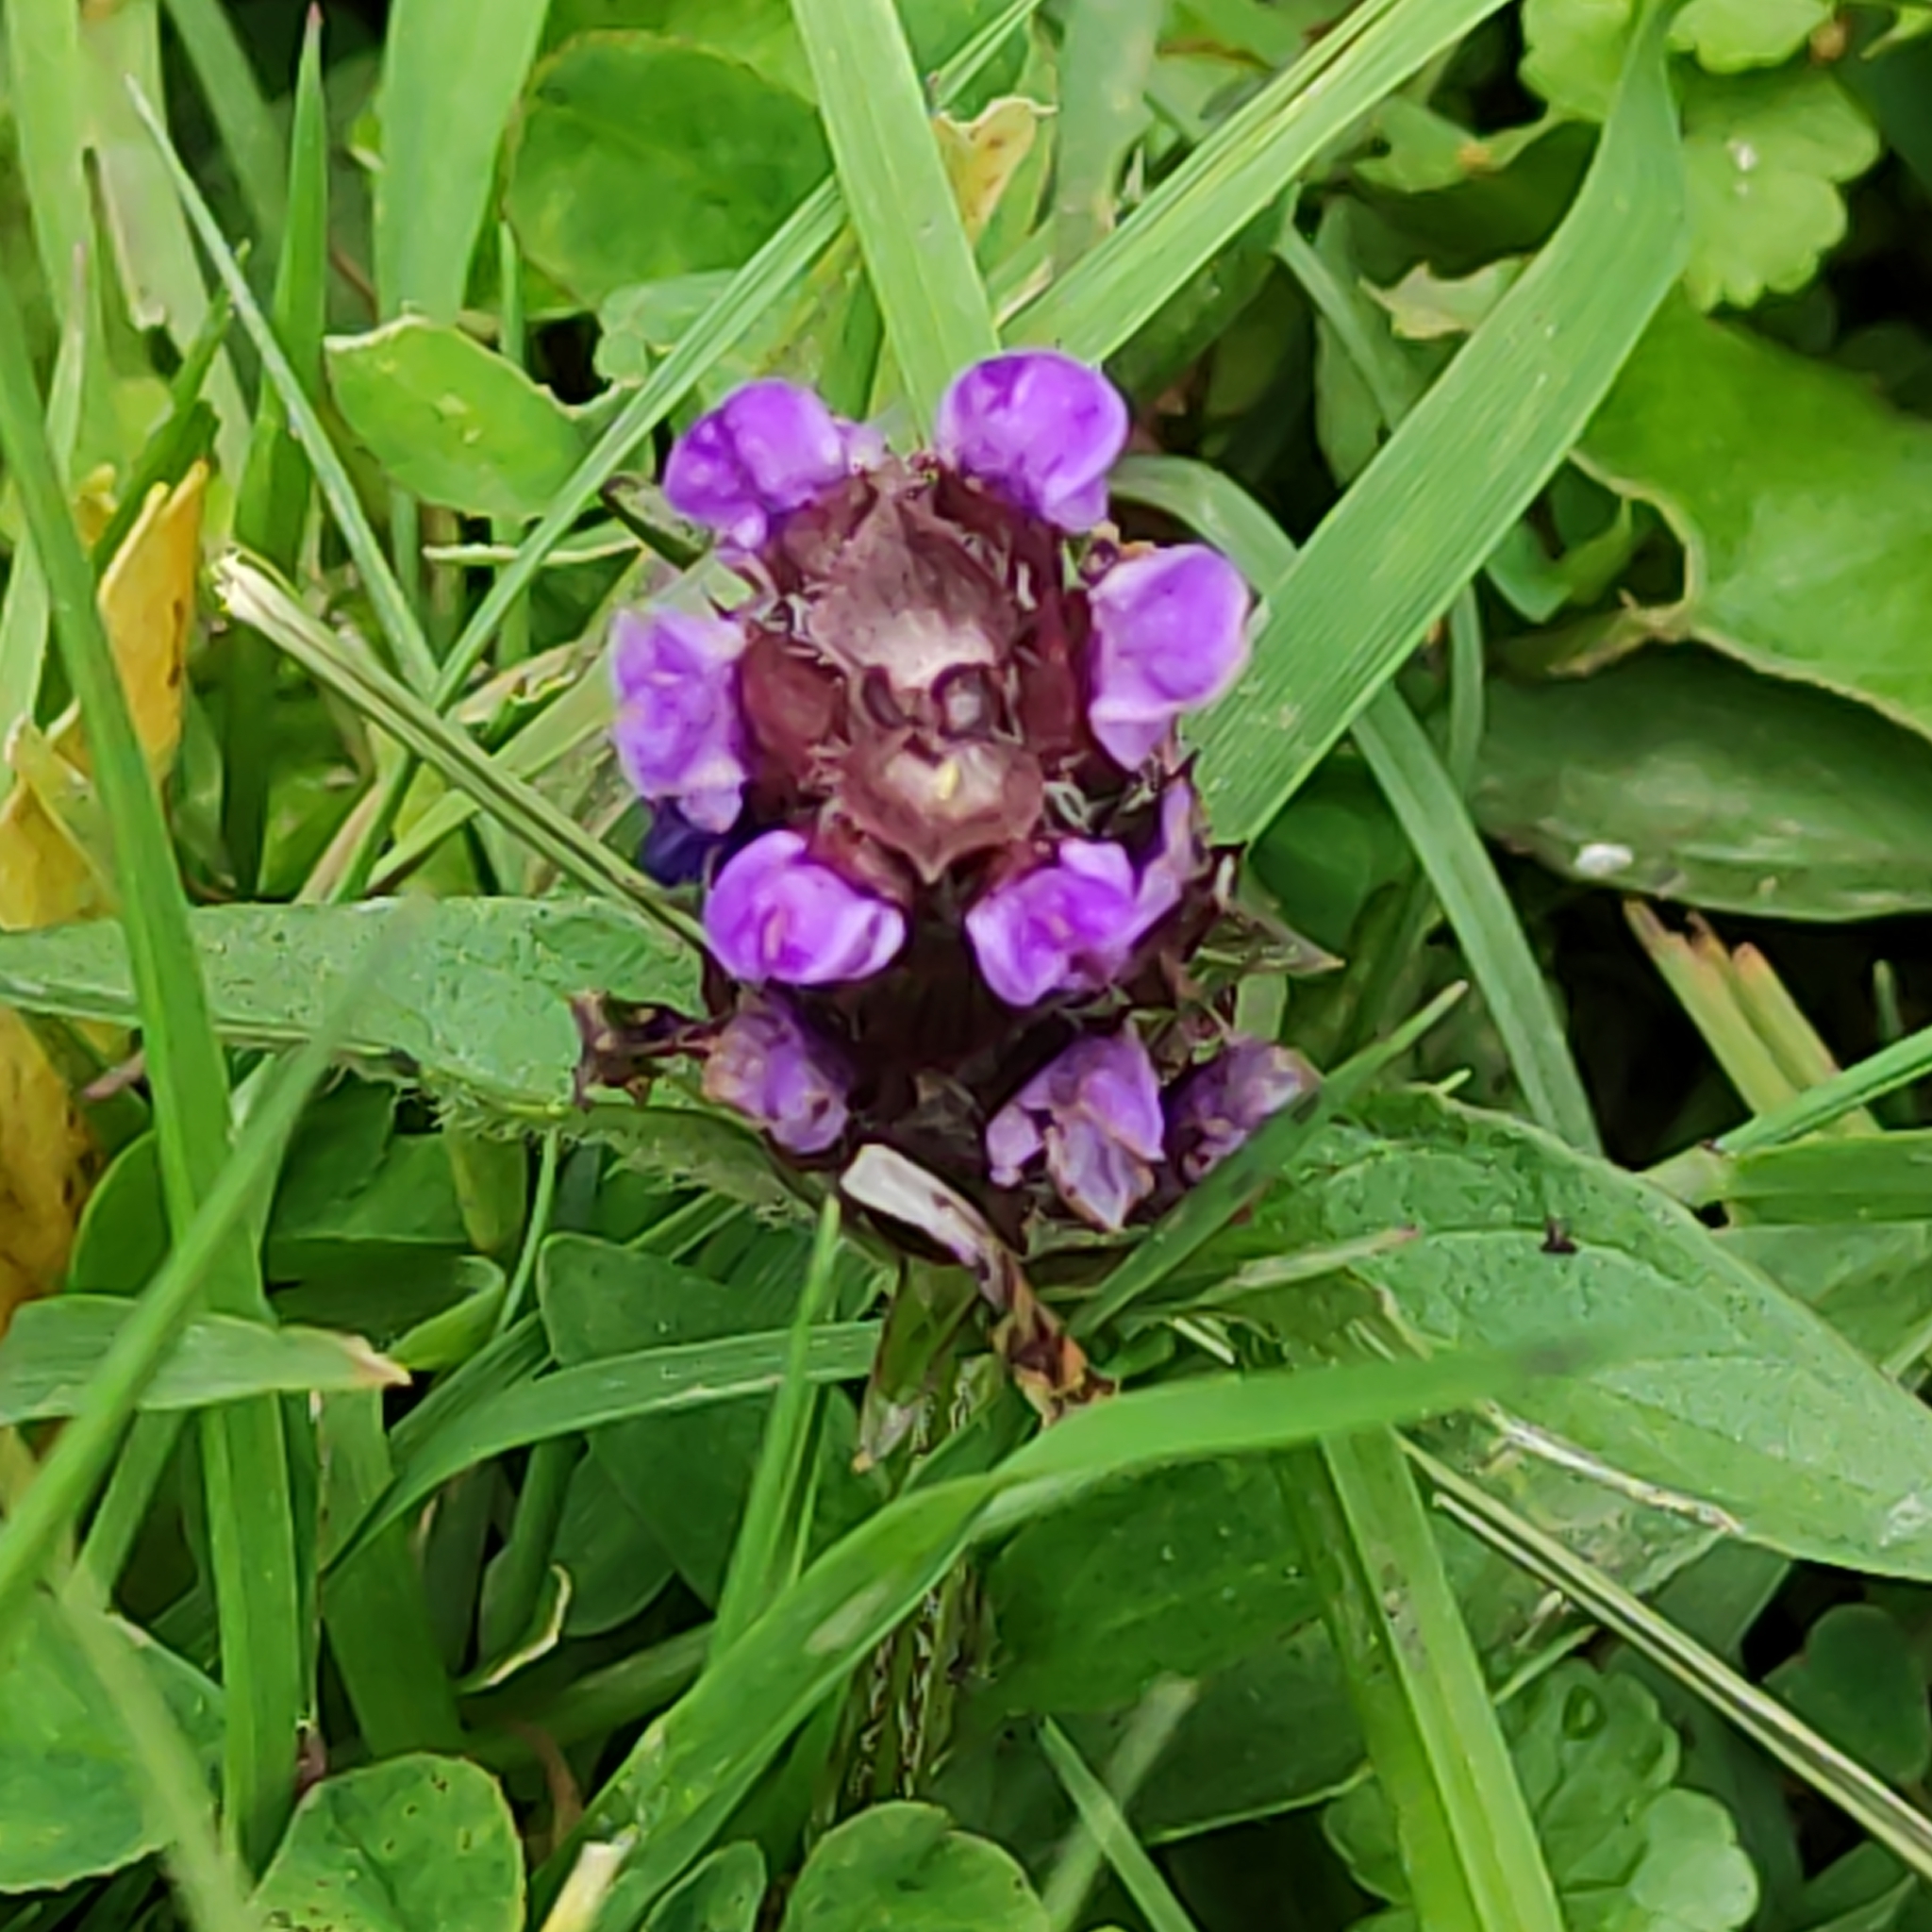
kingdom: Plantae
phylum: Tracheophyta
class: Magnoliopsida
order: Lamiales
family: Lamiaceae
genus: Prunella
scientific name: Prunella vulgaris
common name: Heal-all
